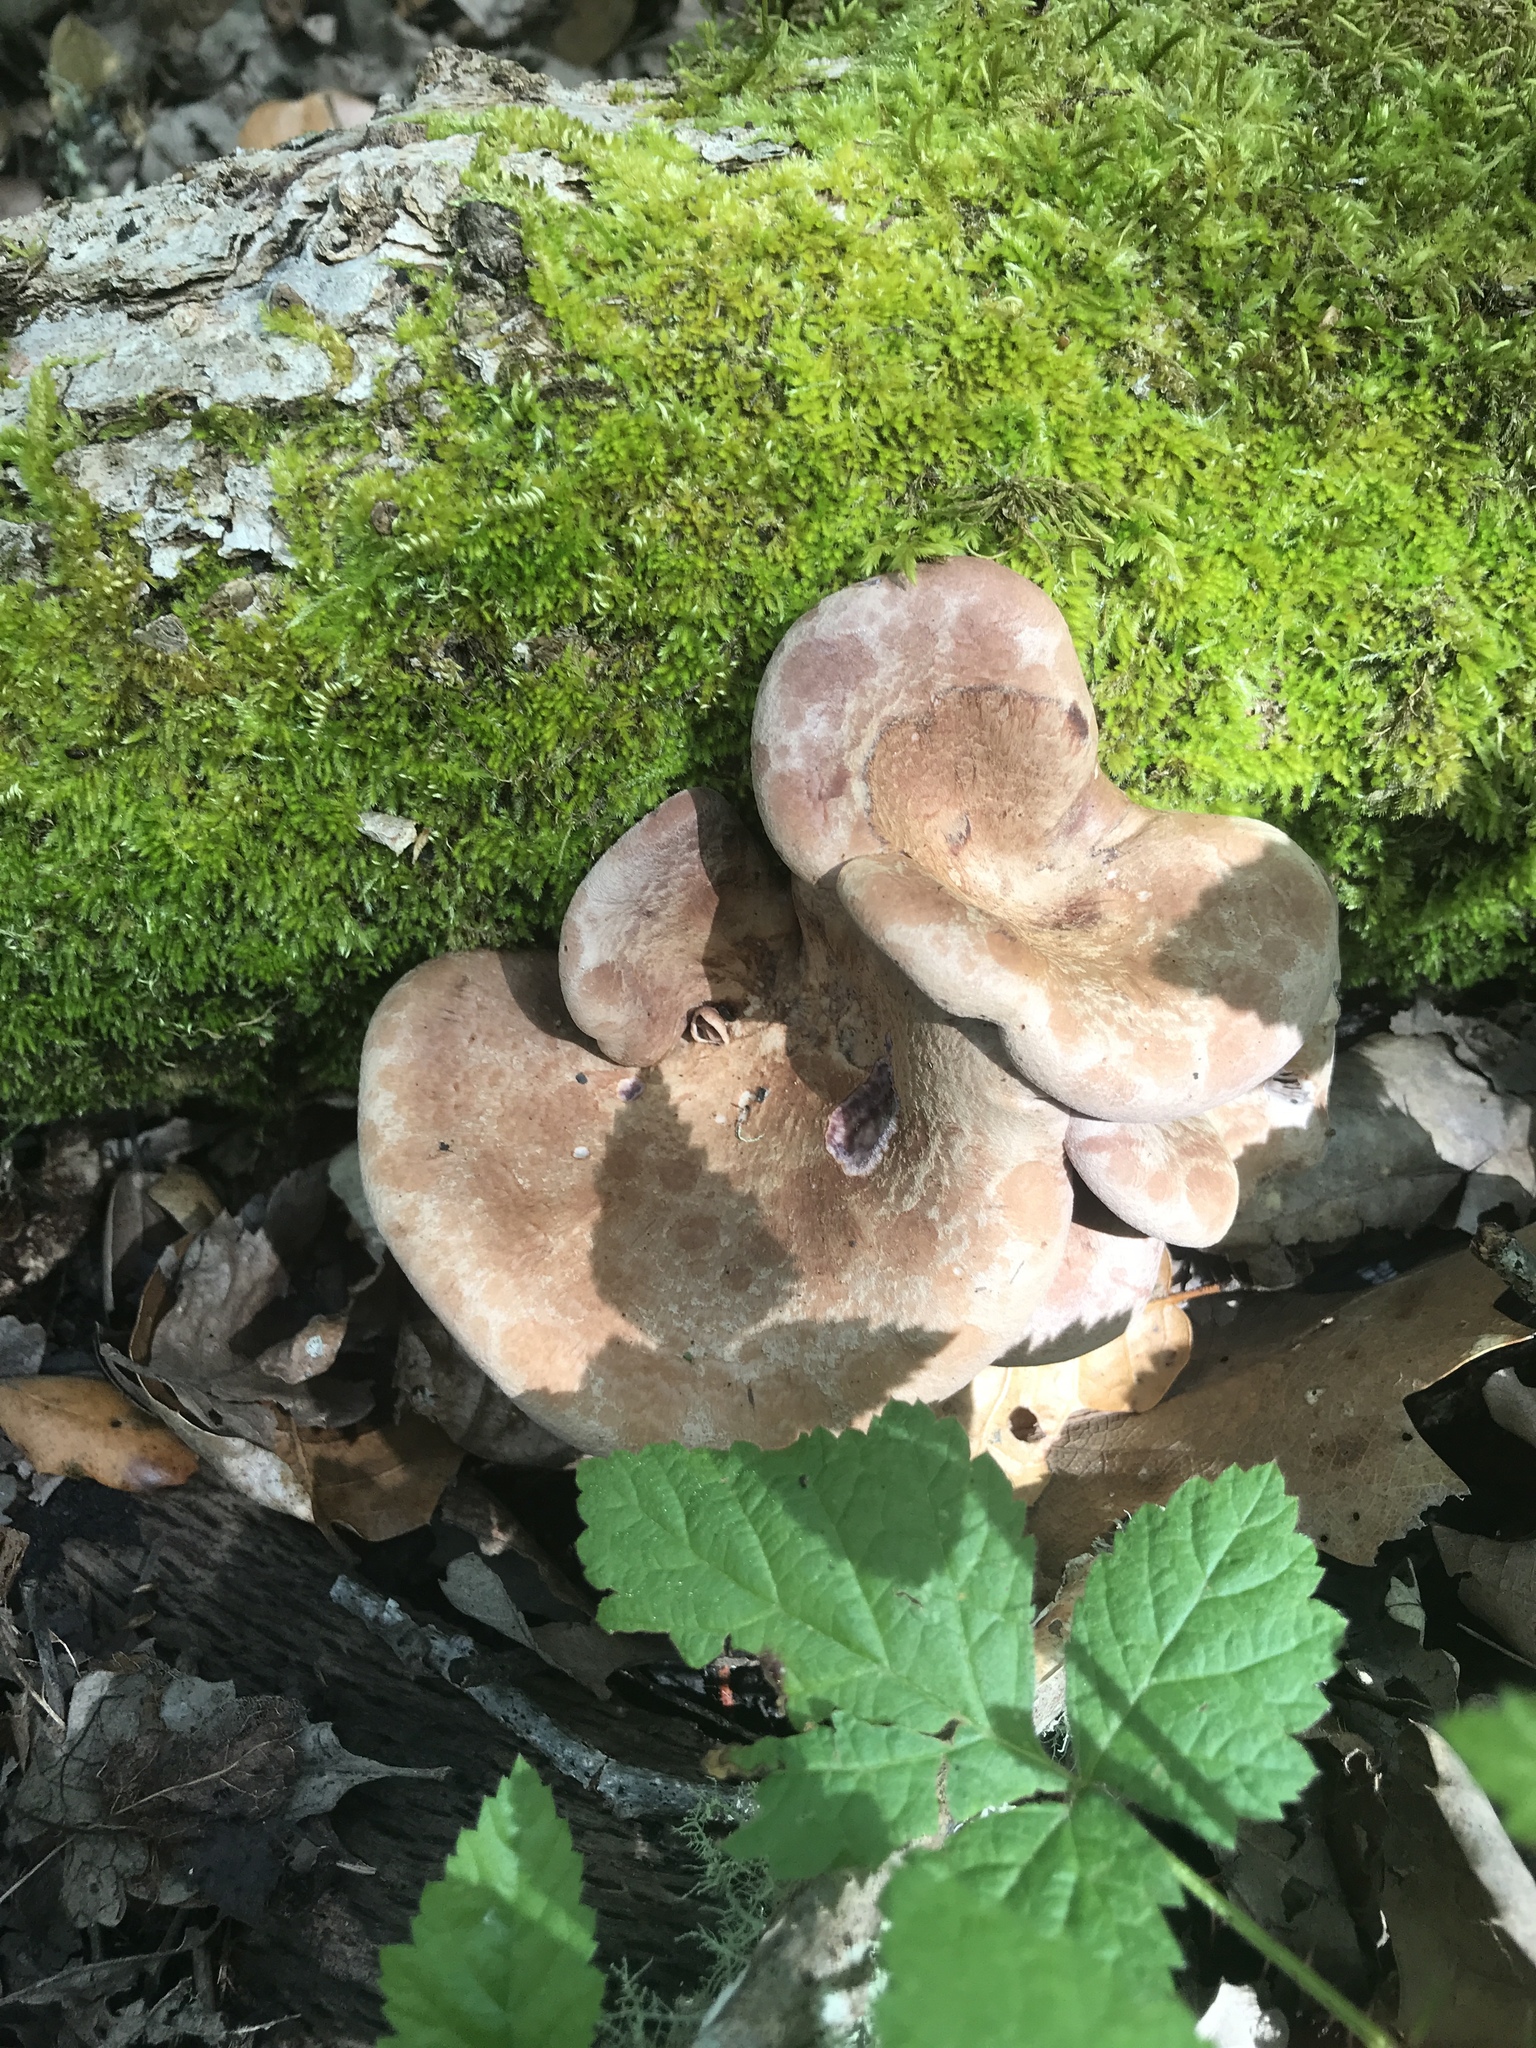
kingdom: Fungi
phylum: Basidiomycota
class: Agaricomycetes
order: Polyporales
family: Panaceae
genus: Panus
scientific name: Panus conchatus
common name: Lilac oysterling
